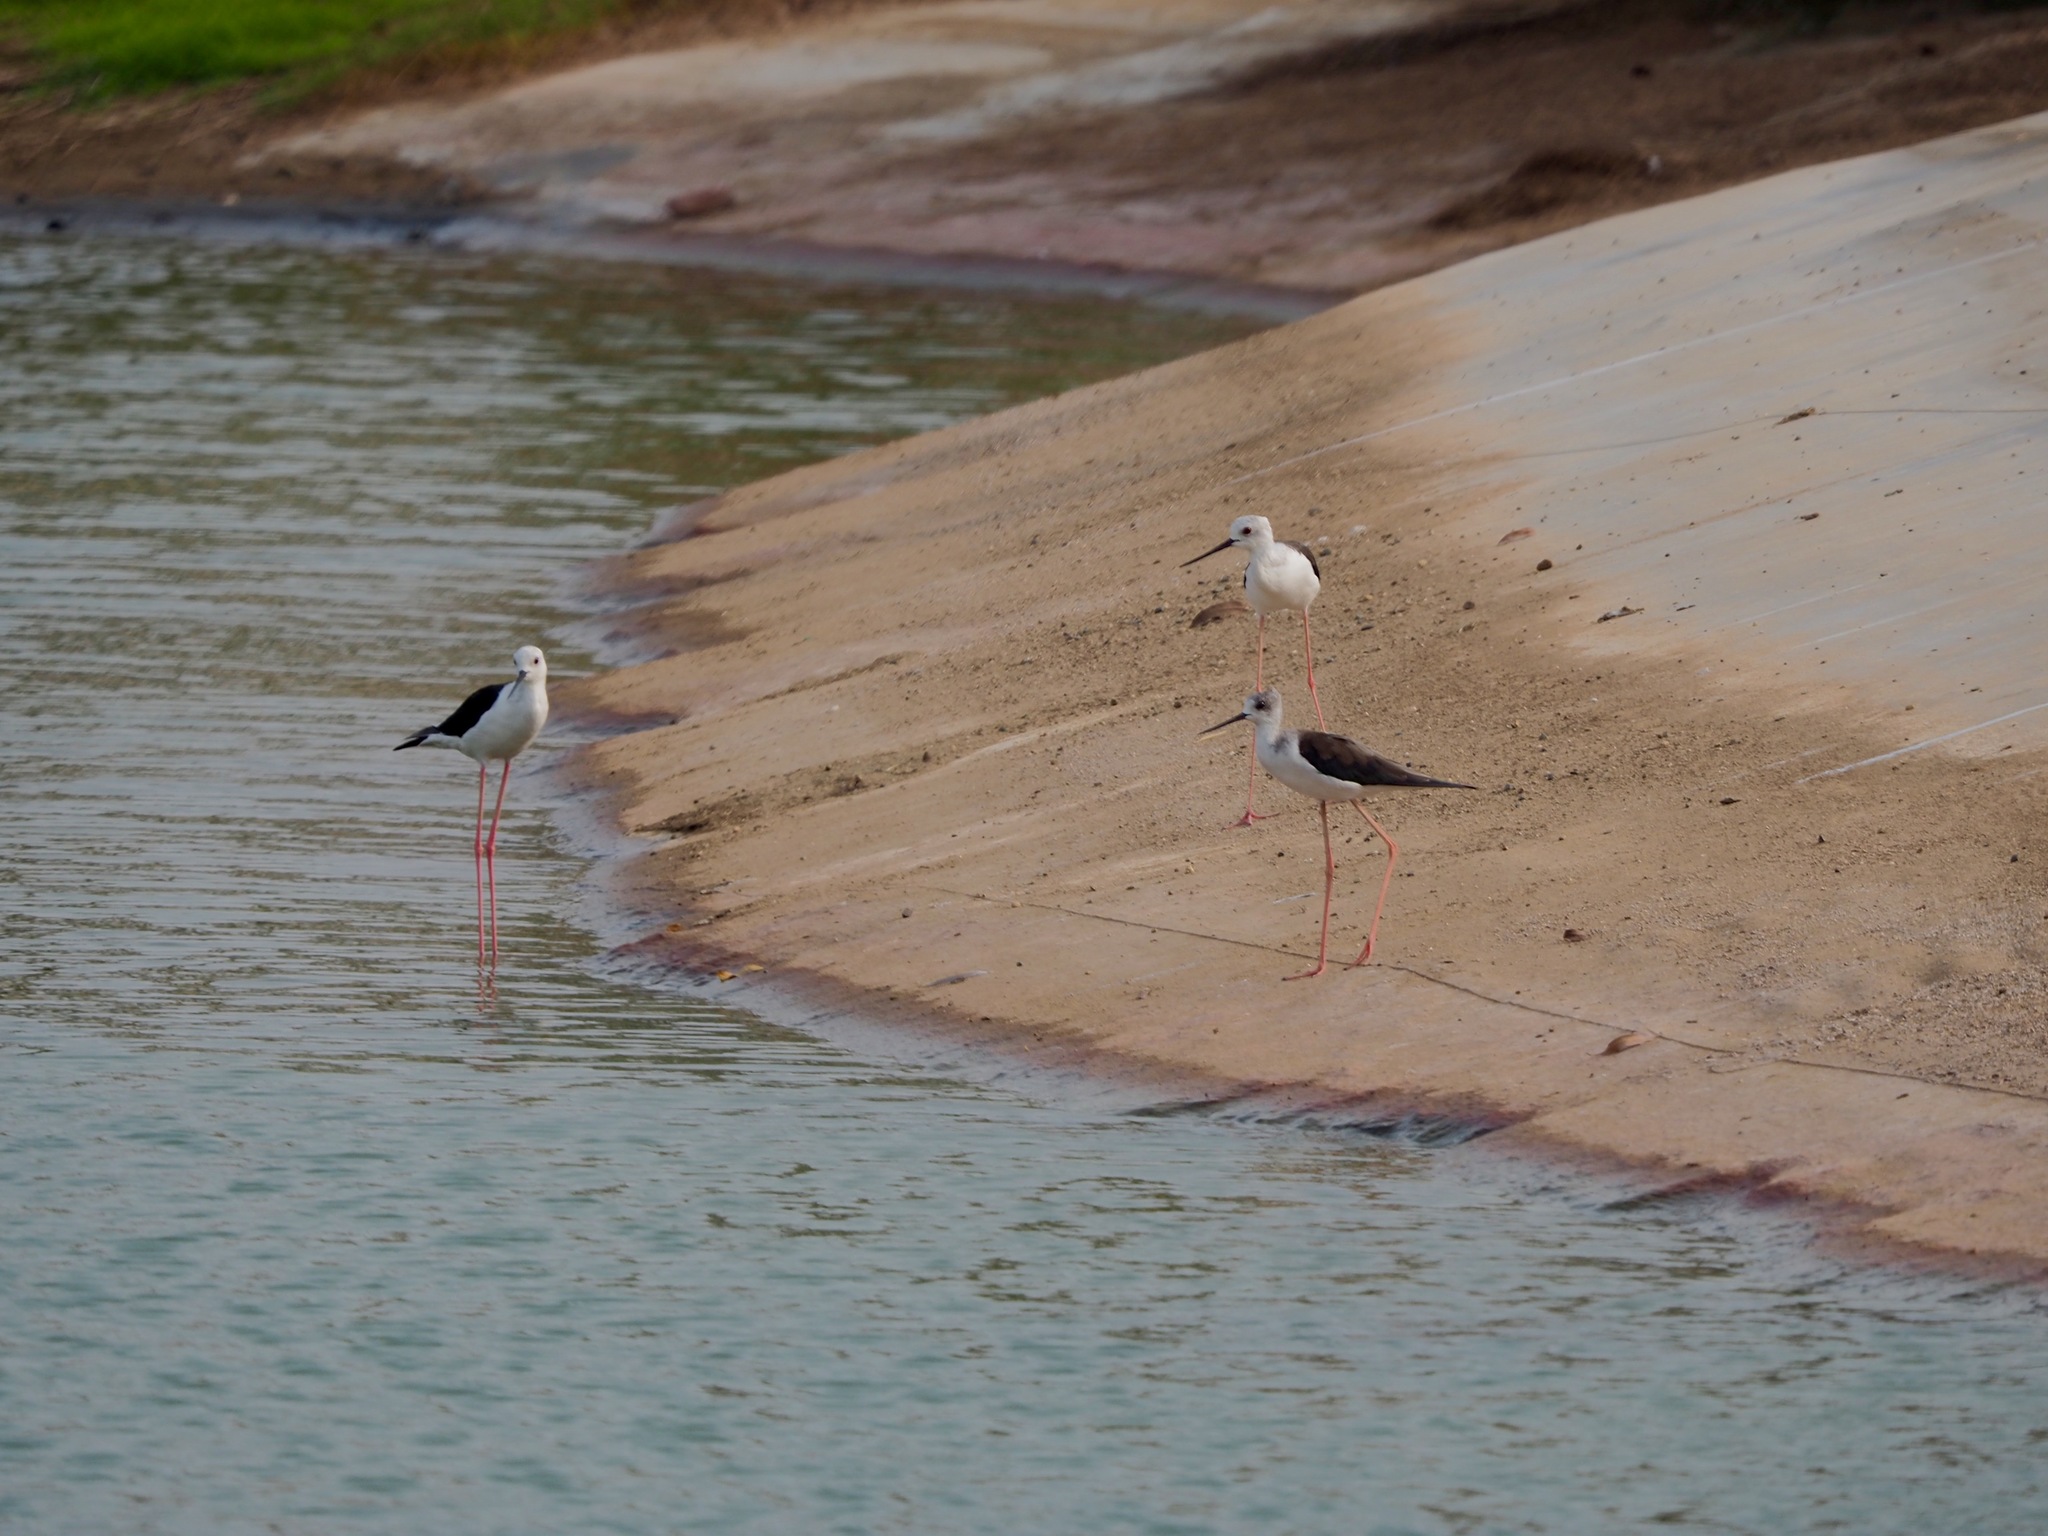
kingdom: Animalia
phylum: Chordata
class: Aves
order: Charadriiformes
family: Recurvirostridae
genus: Himantopus
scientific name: Himantopus himantopus
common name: Black-winged stilt
